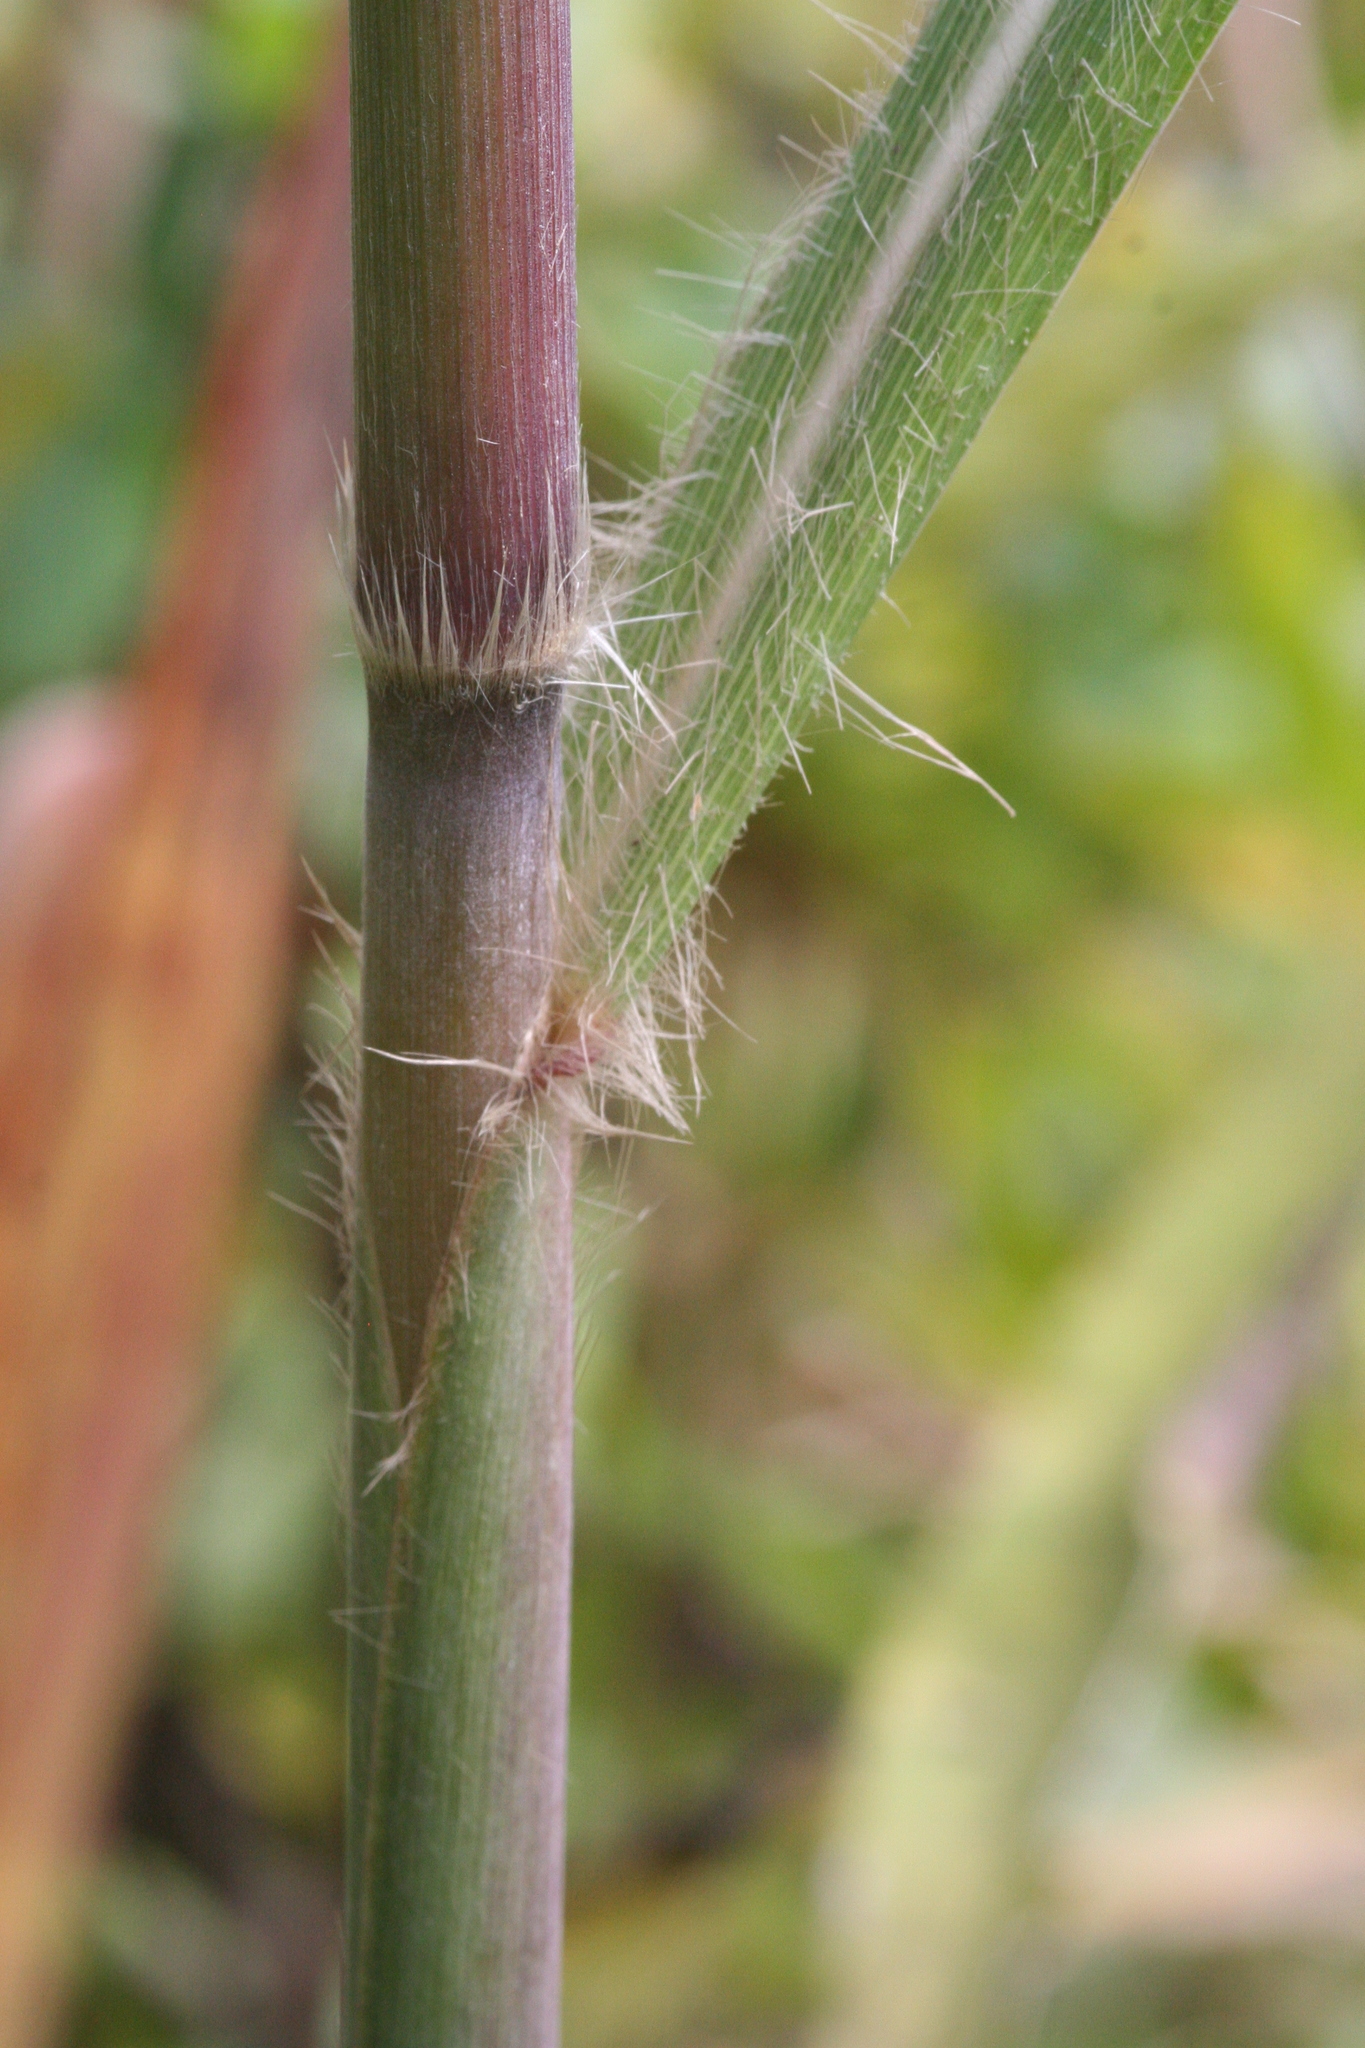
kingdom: Plantae
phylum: Tracheophyta
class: Liliopsida
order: Poales
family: Poaceae
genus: Erianthus
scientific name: Erianthus giganteus
